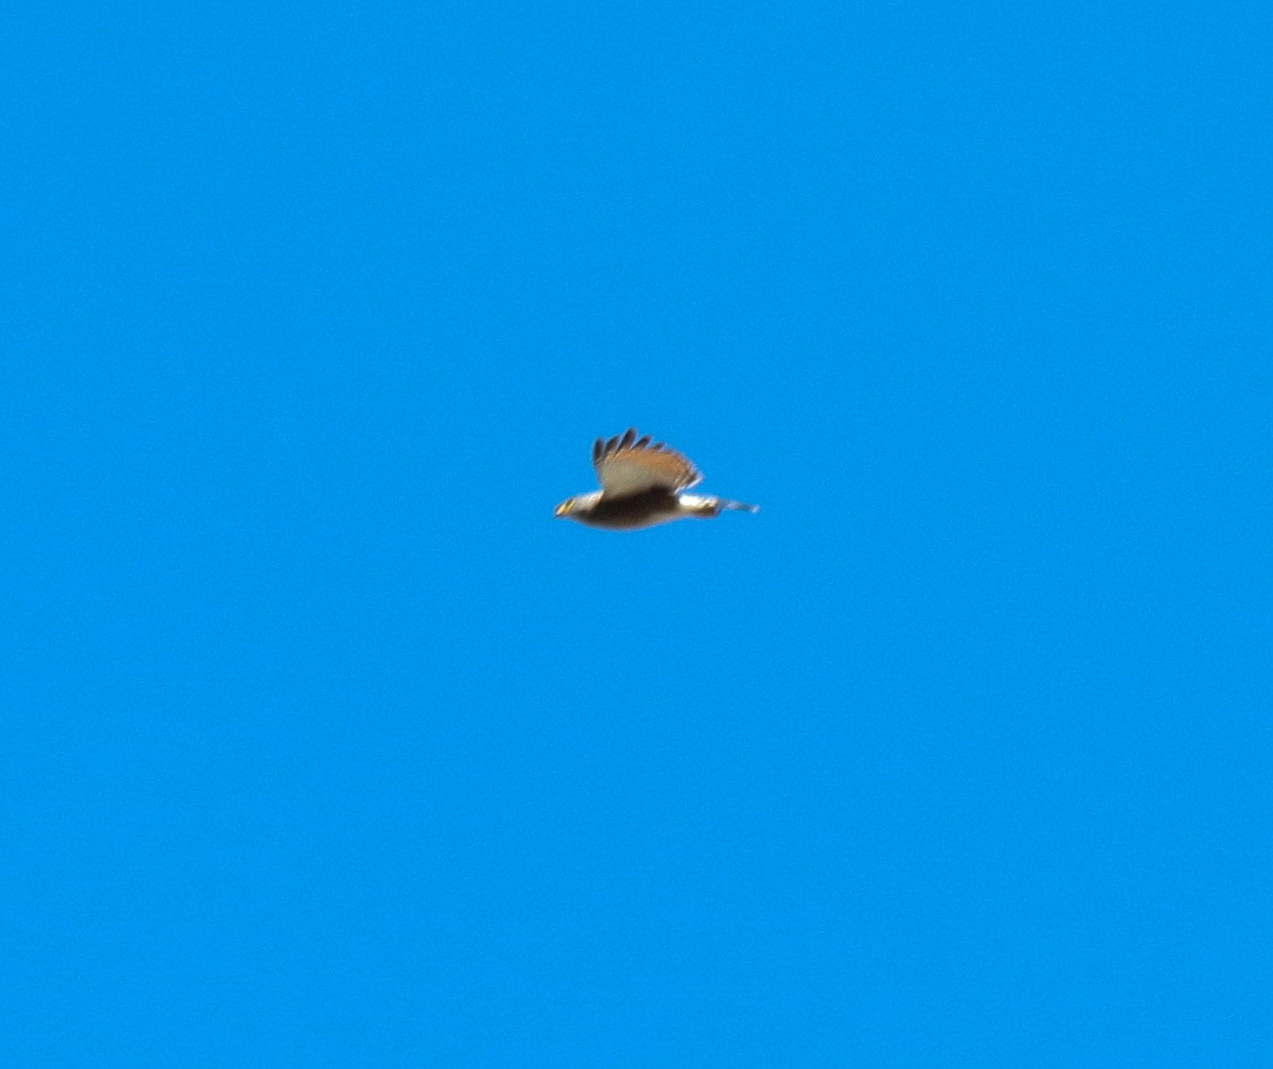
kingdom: Animalia
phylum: Chordata
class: Aves
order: Accipitriformes
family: Accipitridae
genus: Rupornis
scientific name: Rupornis magnirostris
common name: Roadside hawk
